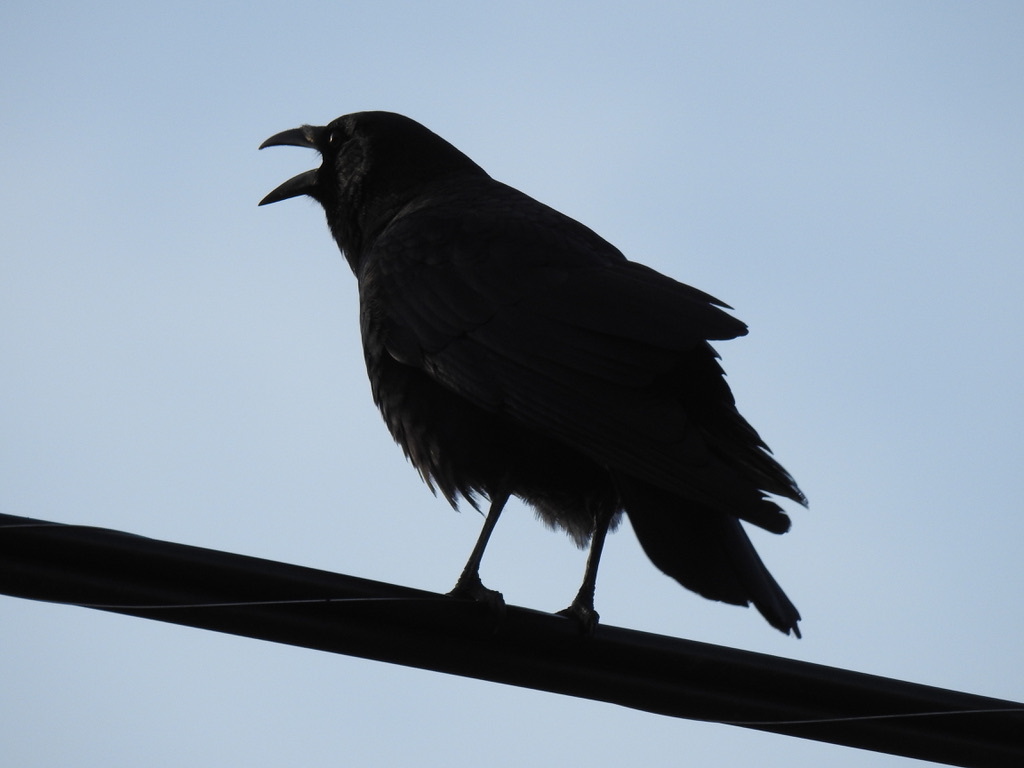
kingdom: Animalia
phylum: Chordata
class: Aves
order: Passeriformes
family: Corvidae
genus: Corvus
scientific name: Corvus brachyrhynchos
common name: American crow
